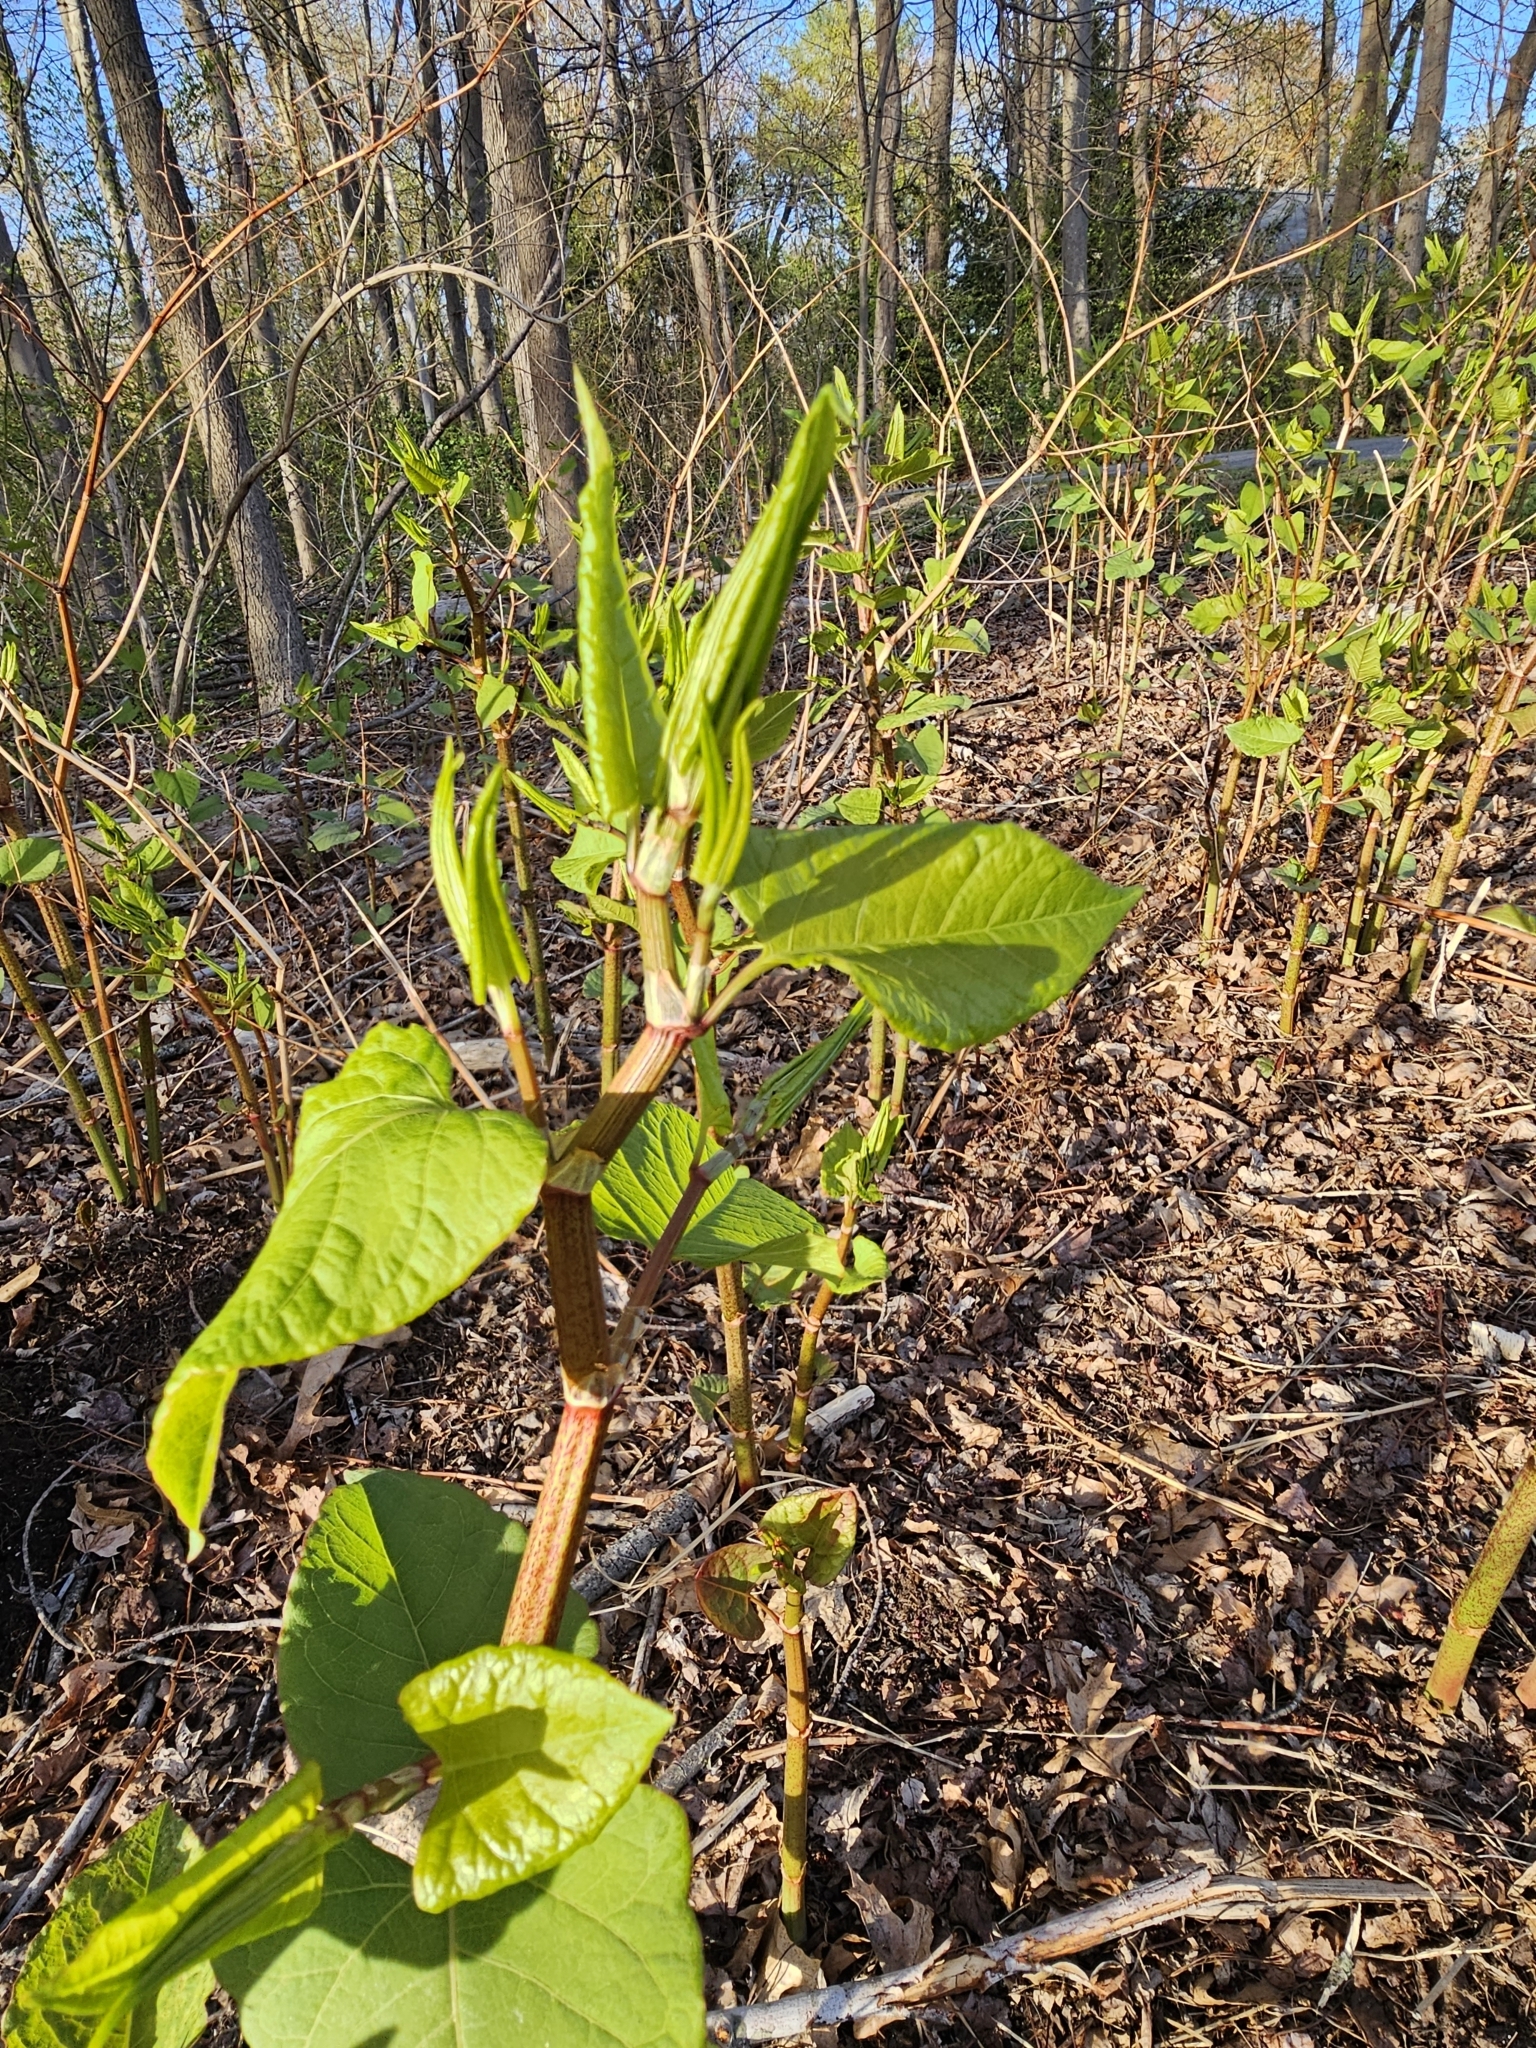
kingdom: Plantae
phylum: Tracheophyta
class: Magnoliopsida
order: Caryophyllales
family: Polygonaceae
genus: Reynoutria
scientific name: Reynoutria japonica
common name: Japanese knotweed
